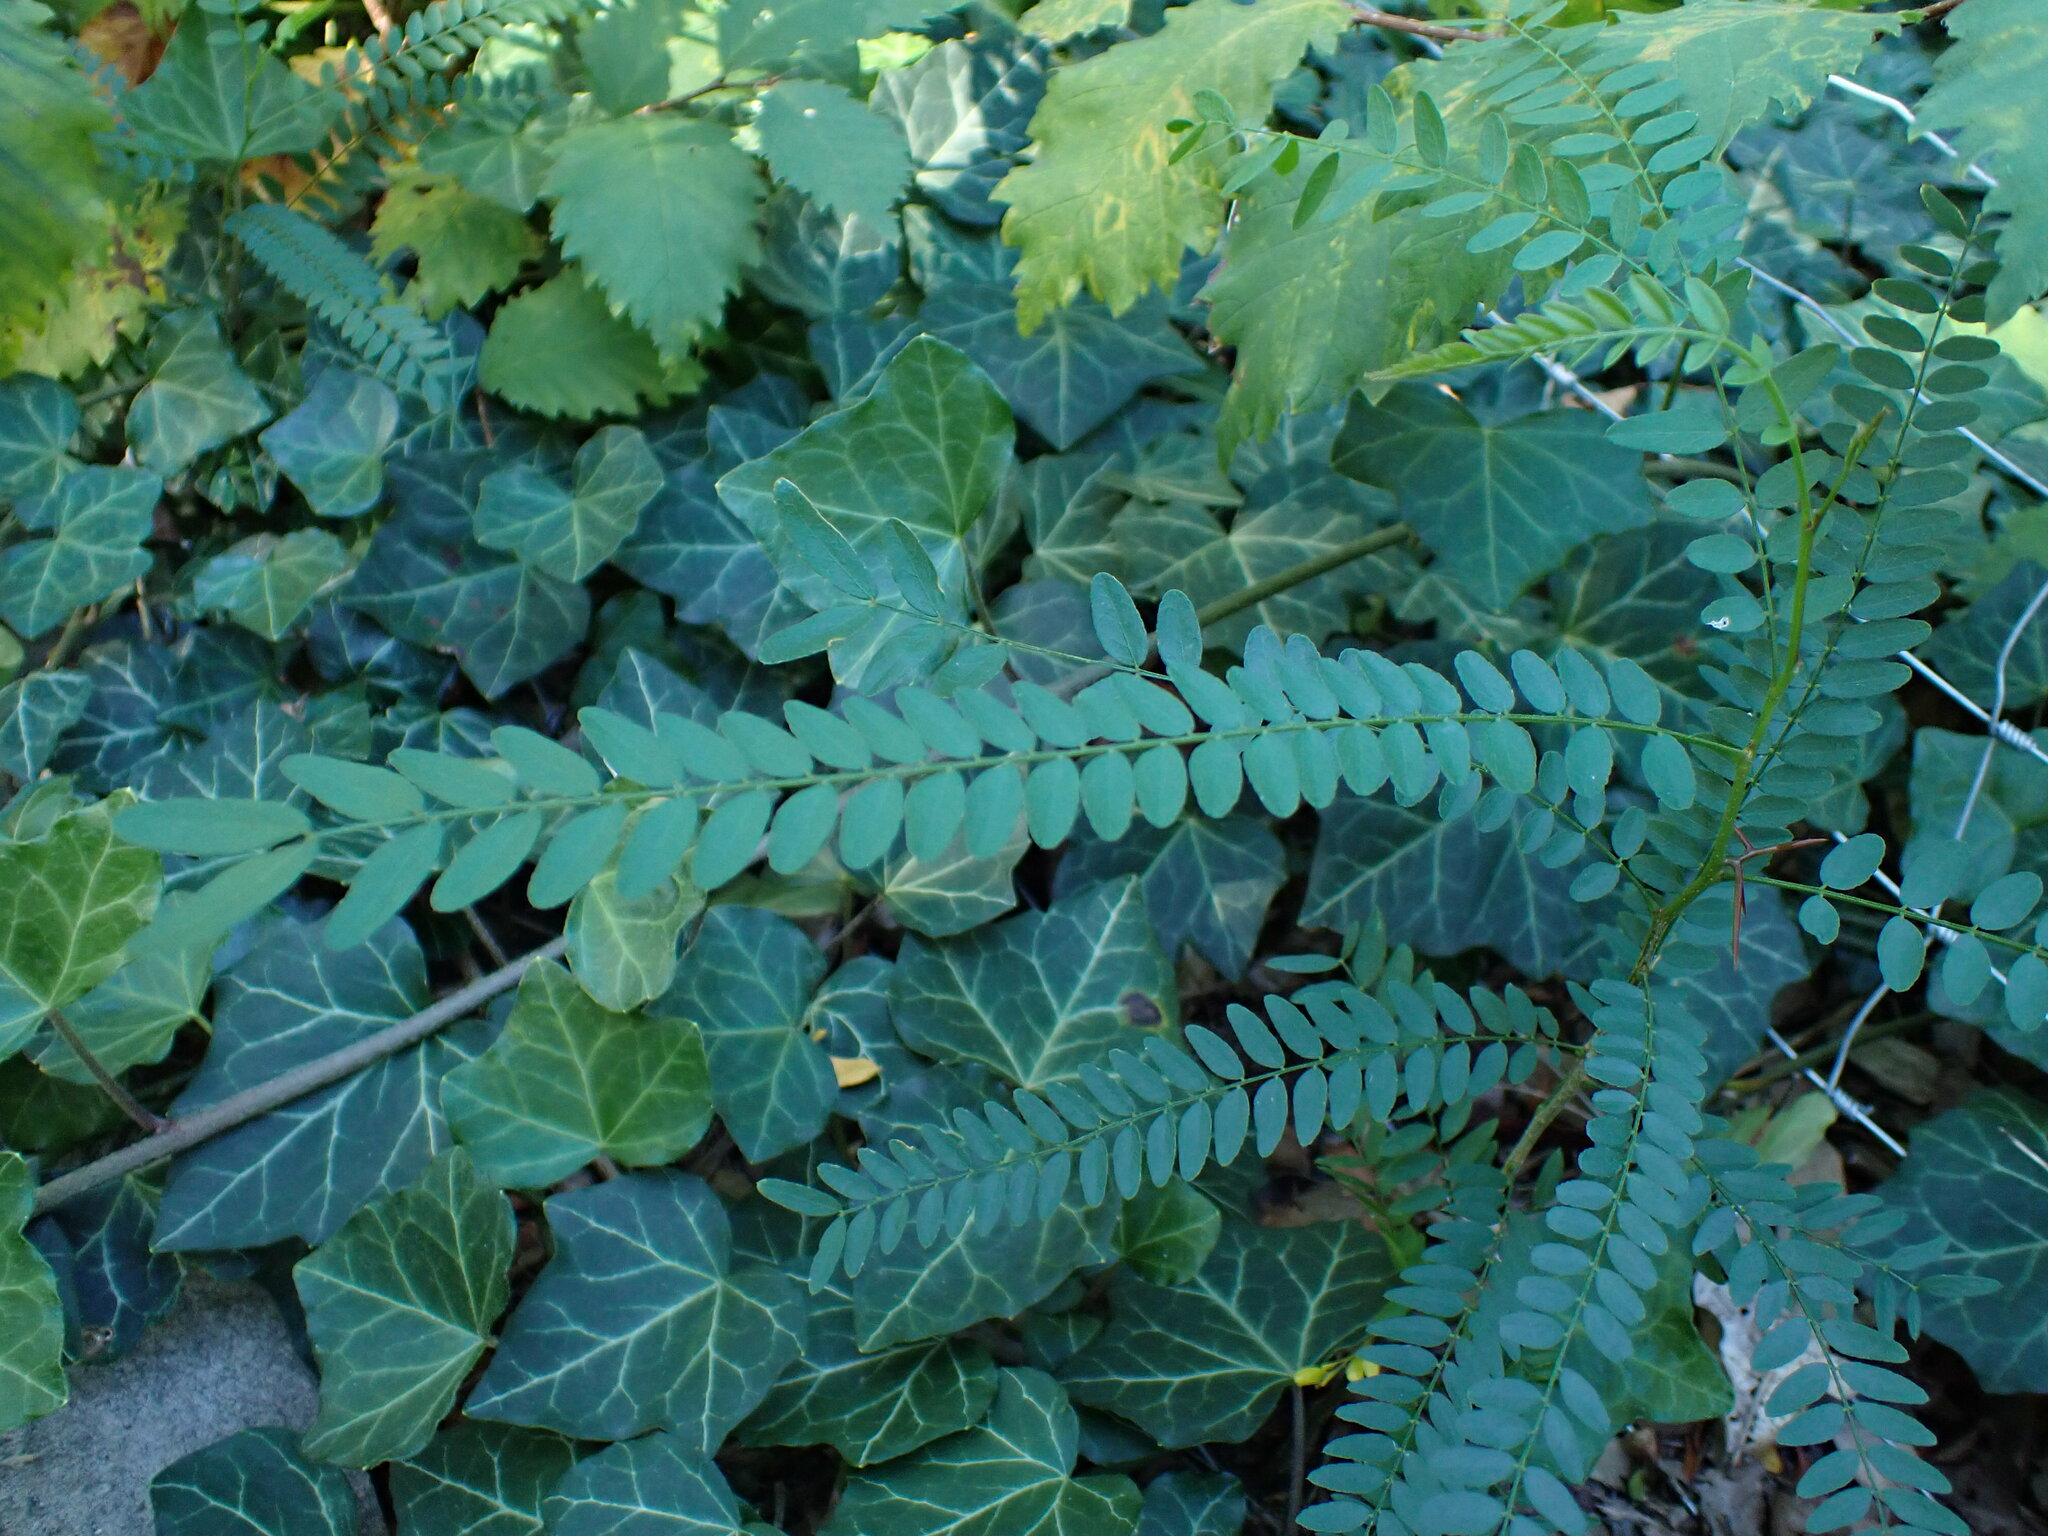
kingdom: Plantae
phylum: Tracheophyta
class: Magnoliopsida
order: Fabales
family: Fabaceae
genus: Gleditsia
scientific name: Gleditsia triacanthos
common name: Common honeylocust
